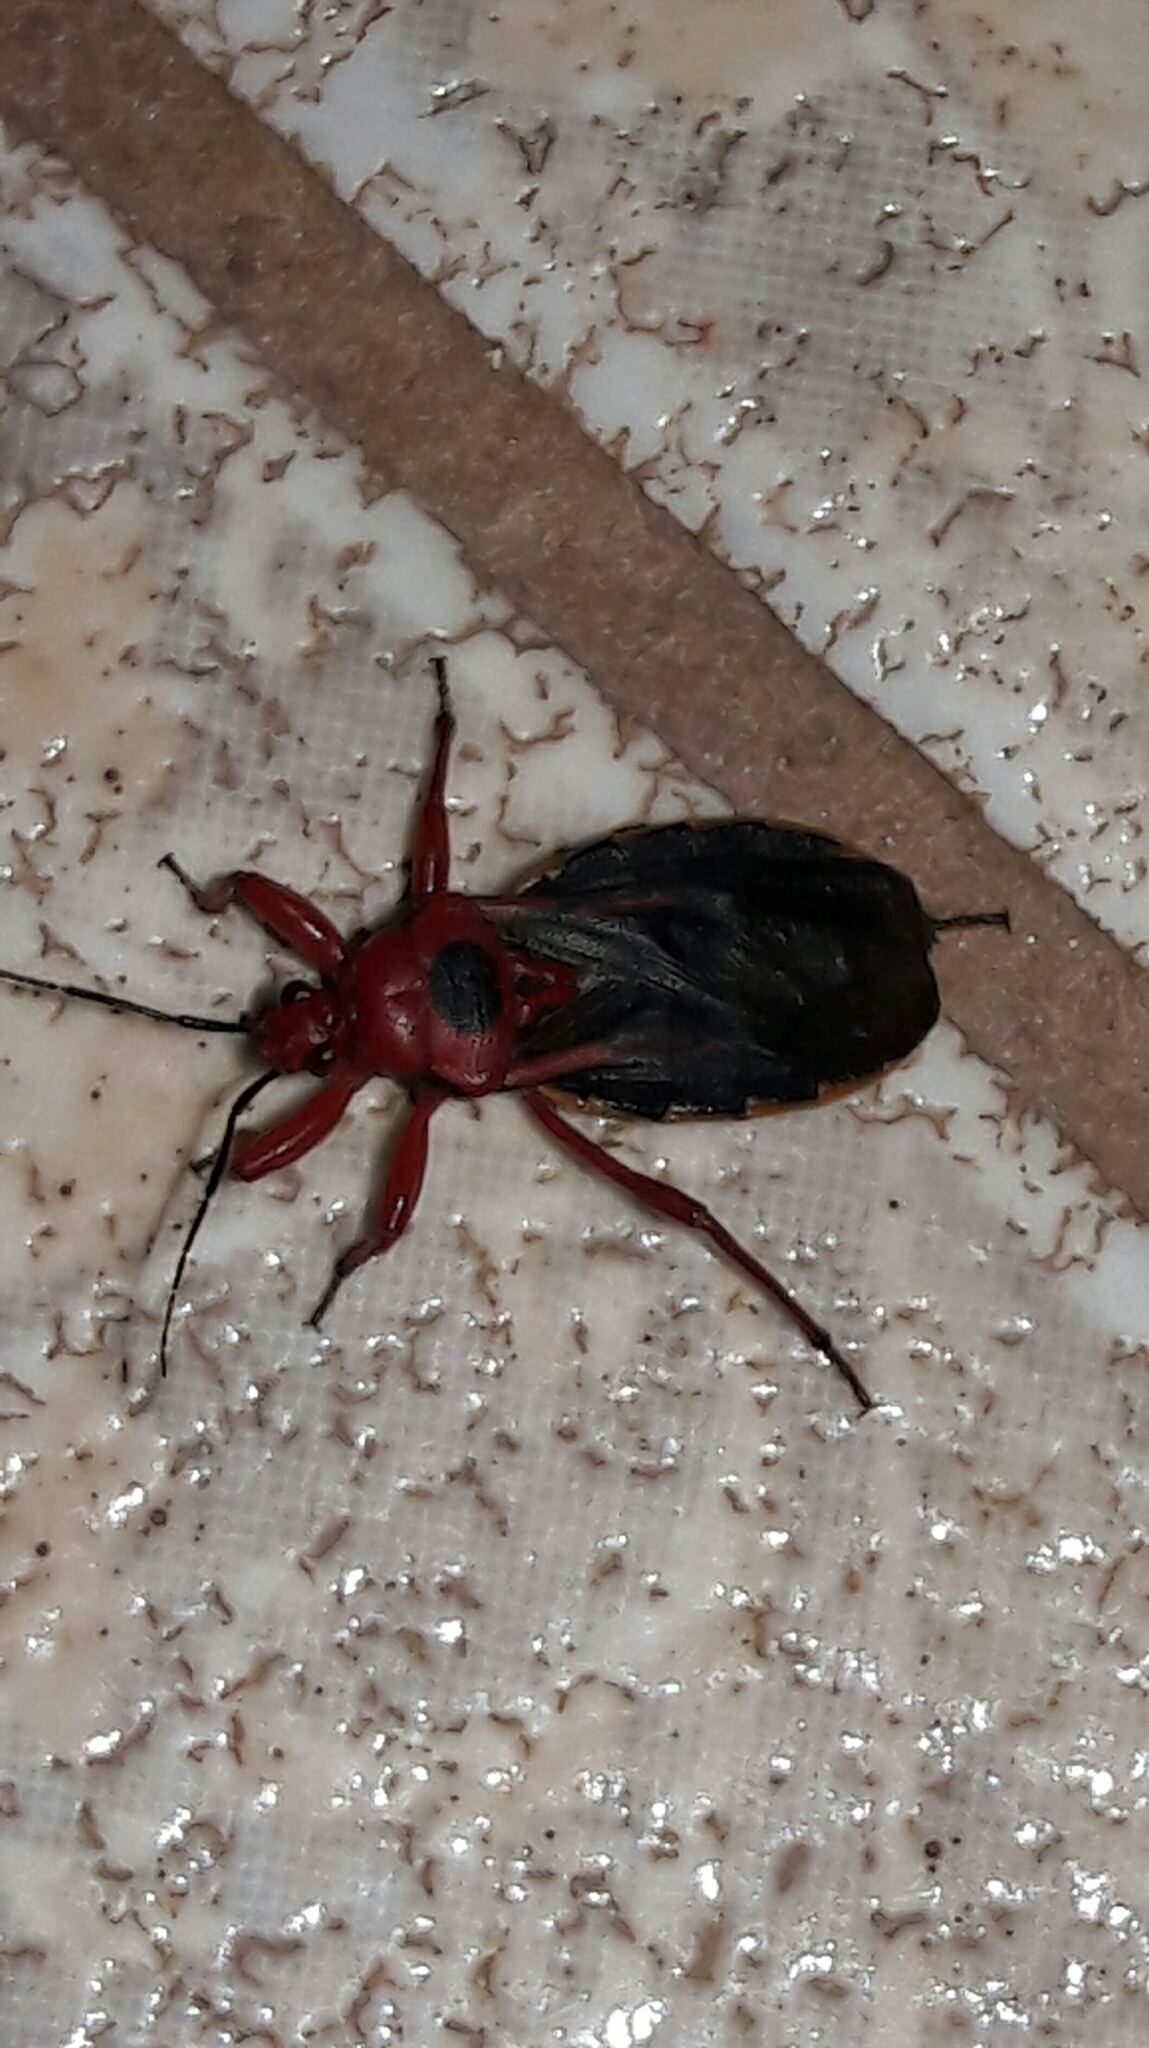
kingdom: Animalia
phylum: Arthropoda
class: Insecta
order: Hemiptera
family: Reduviidae
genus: Brontostoma
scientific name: Brontostoma discus
